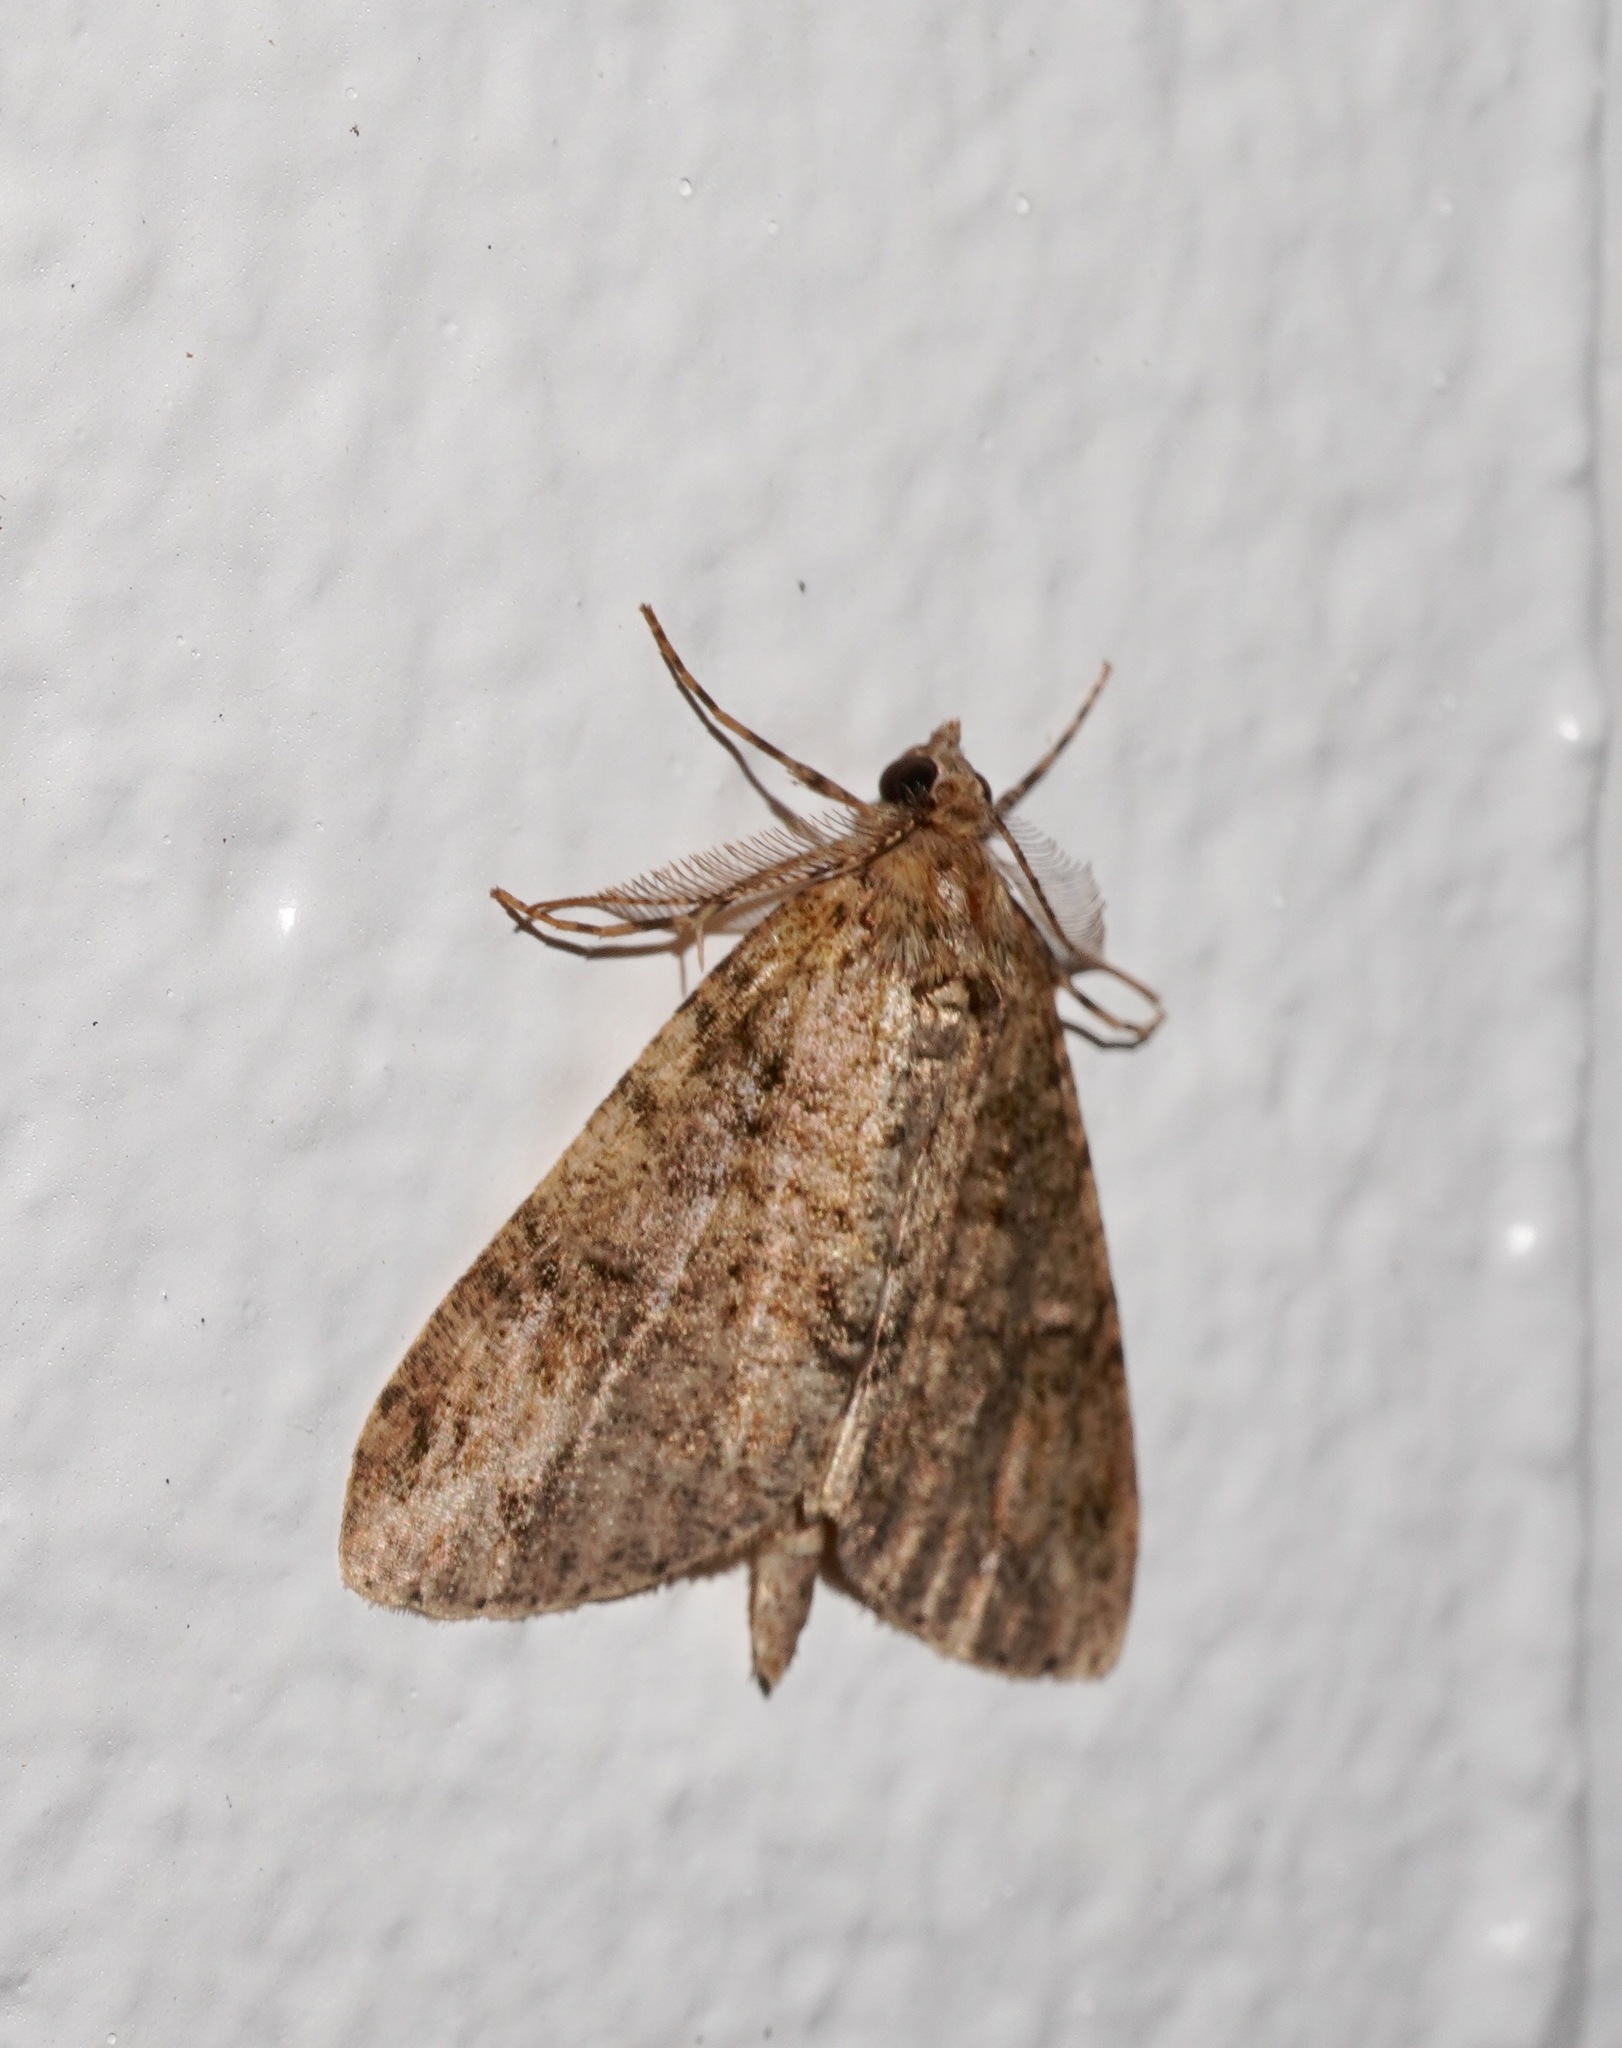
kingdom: Animalia
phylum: Arthropoda
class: Insecta
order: Lepidoptera
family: Geometridae
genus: Pseudocoremia
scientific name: Pseudocoremia suavis
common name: Common forest looper
